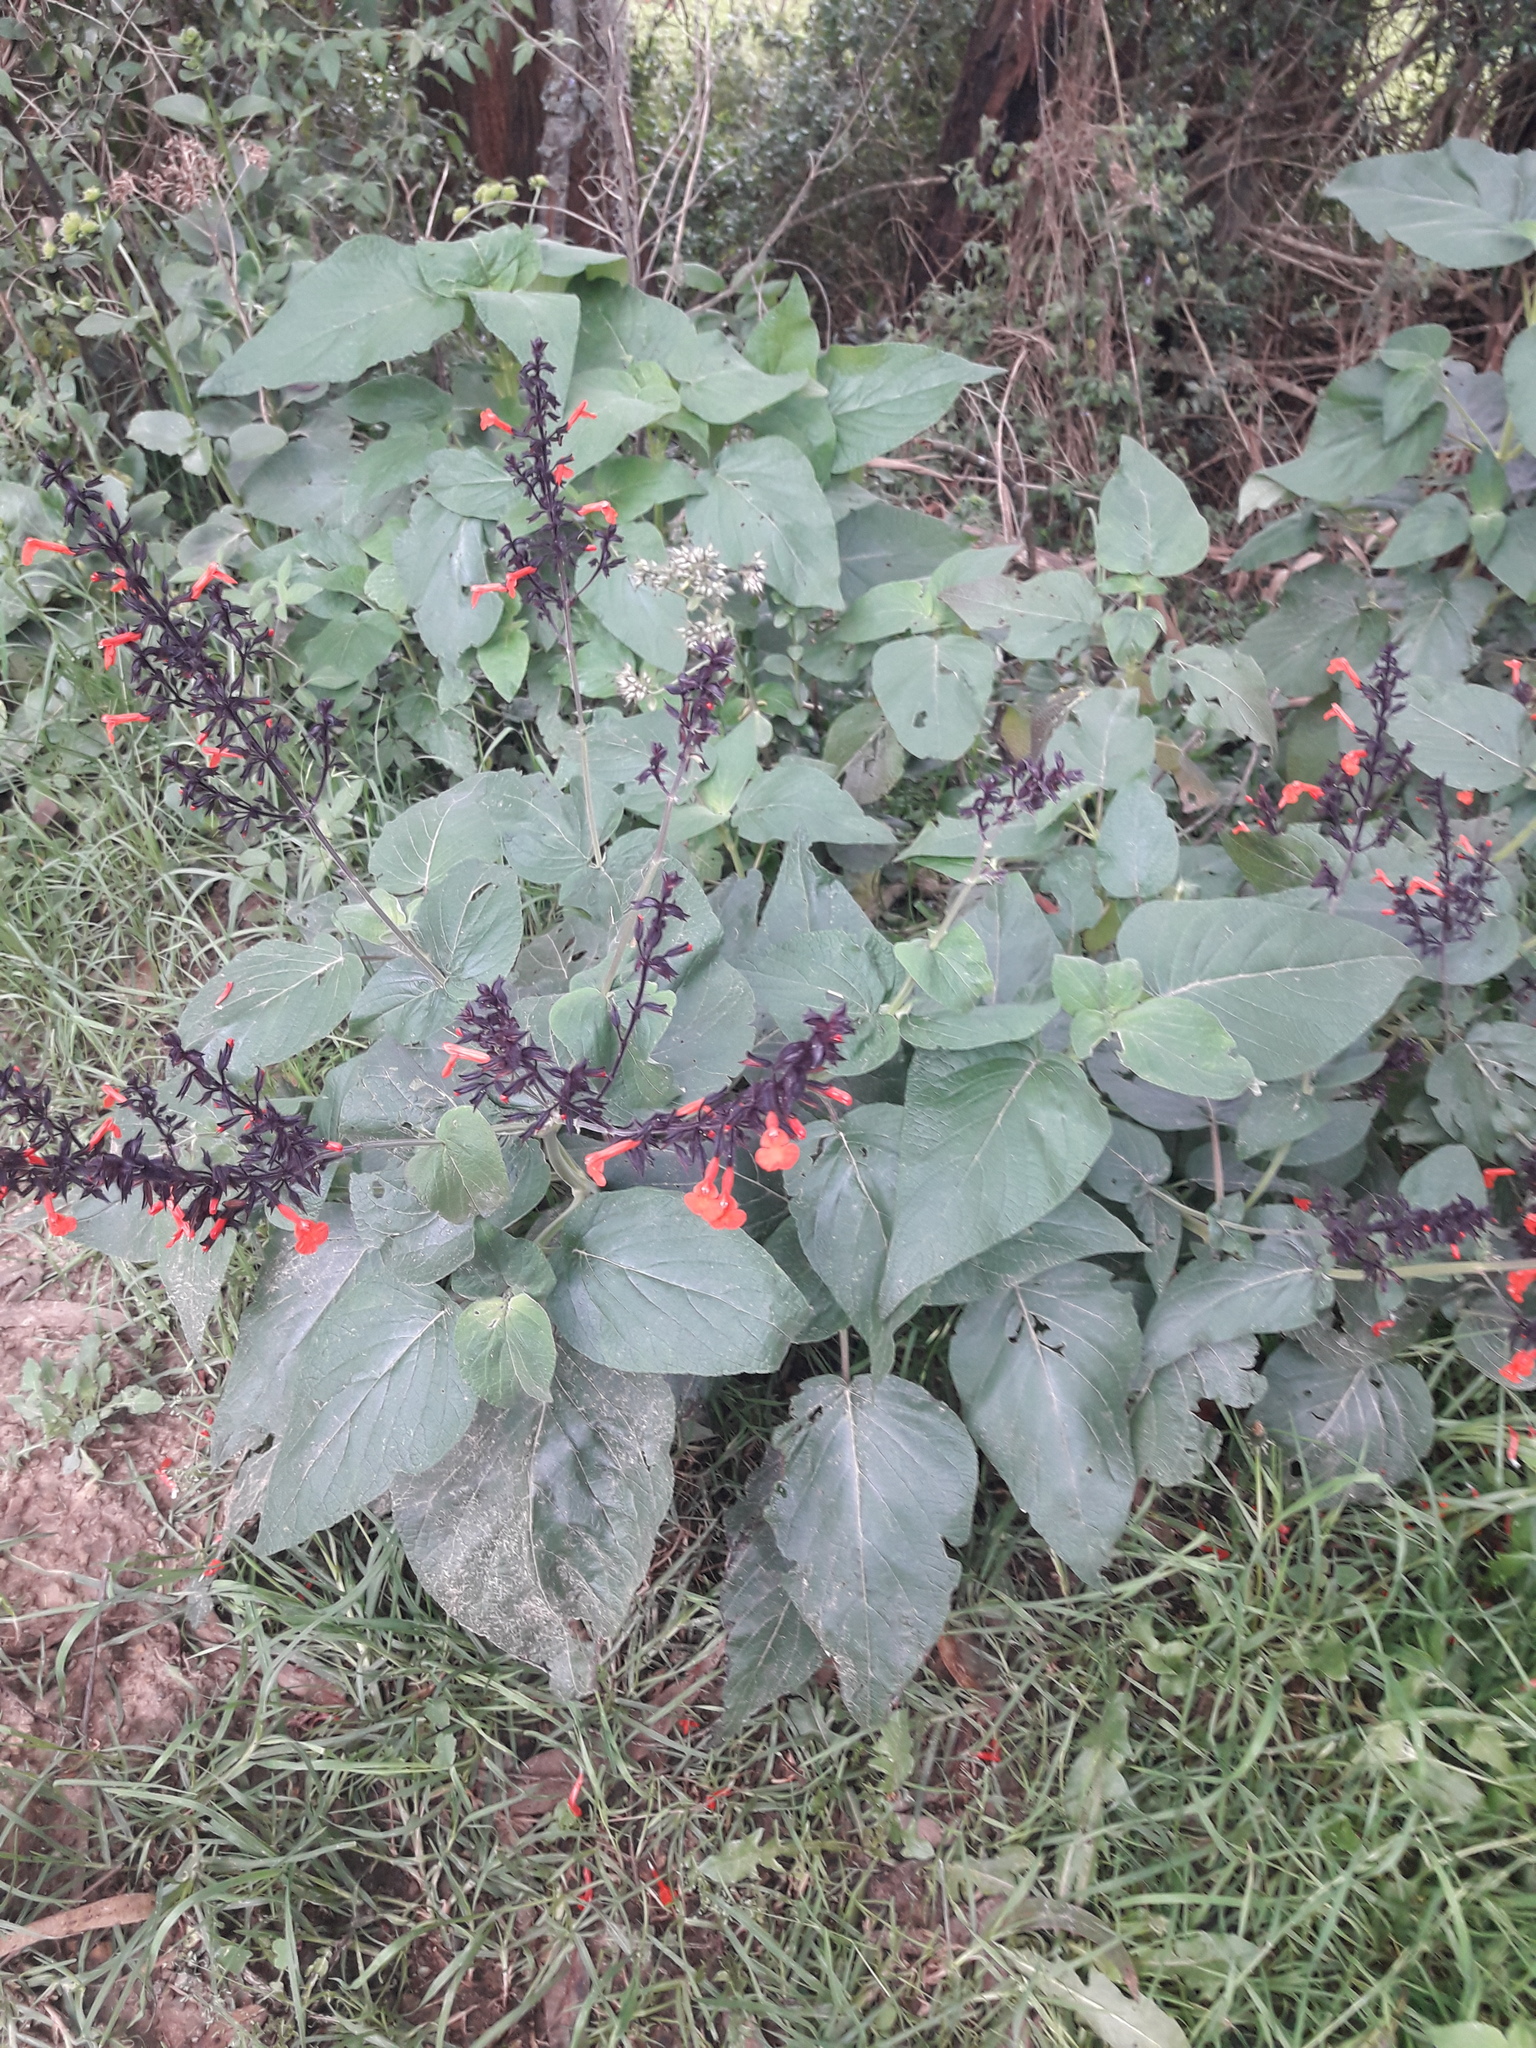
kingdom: Plantae
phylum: Tracheophyta
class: Magnoliopsida
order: Lamiales
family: Lamiaceae
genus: Salvia
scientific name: Salvia rubescens
